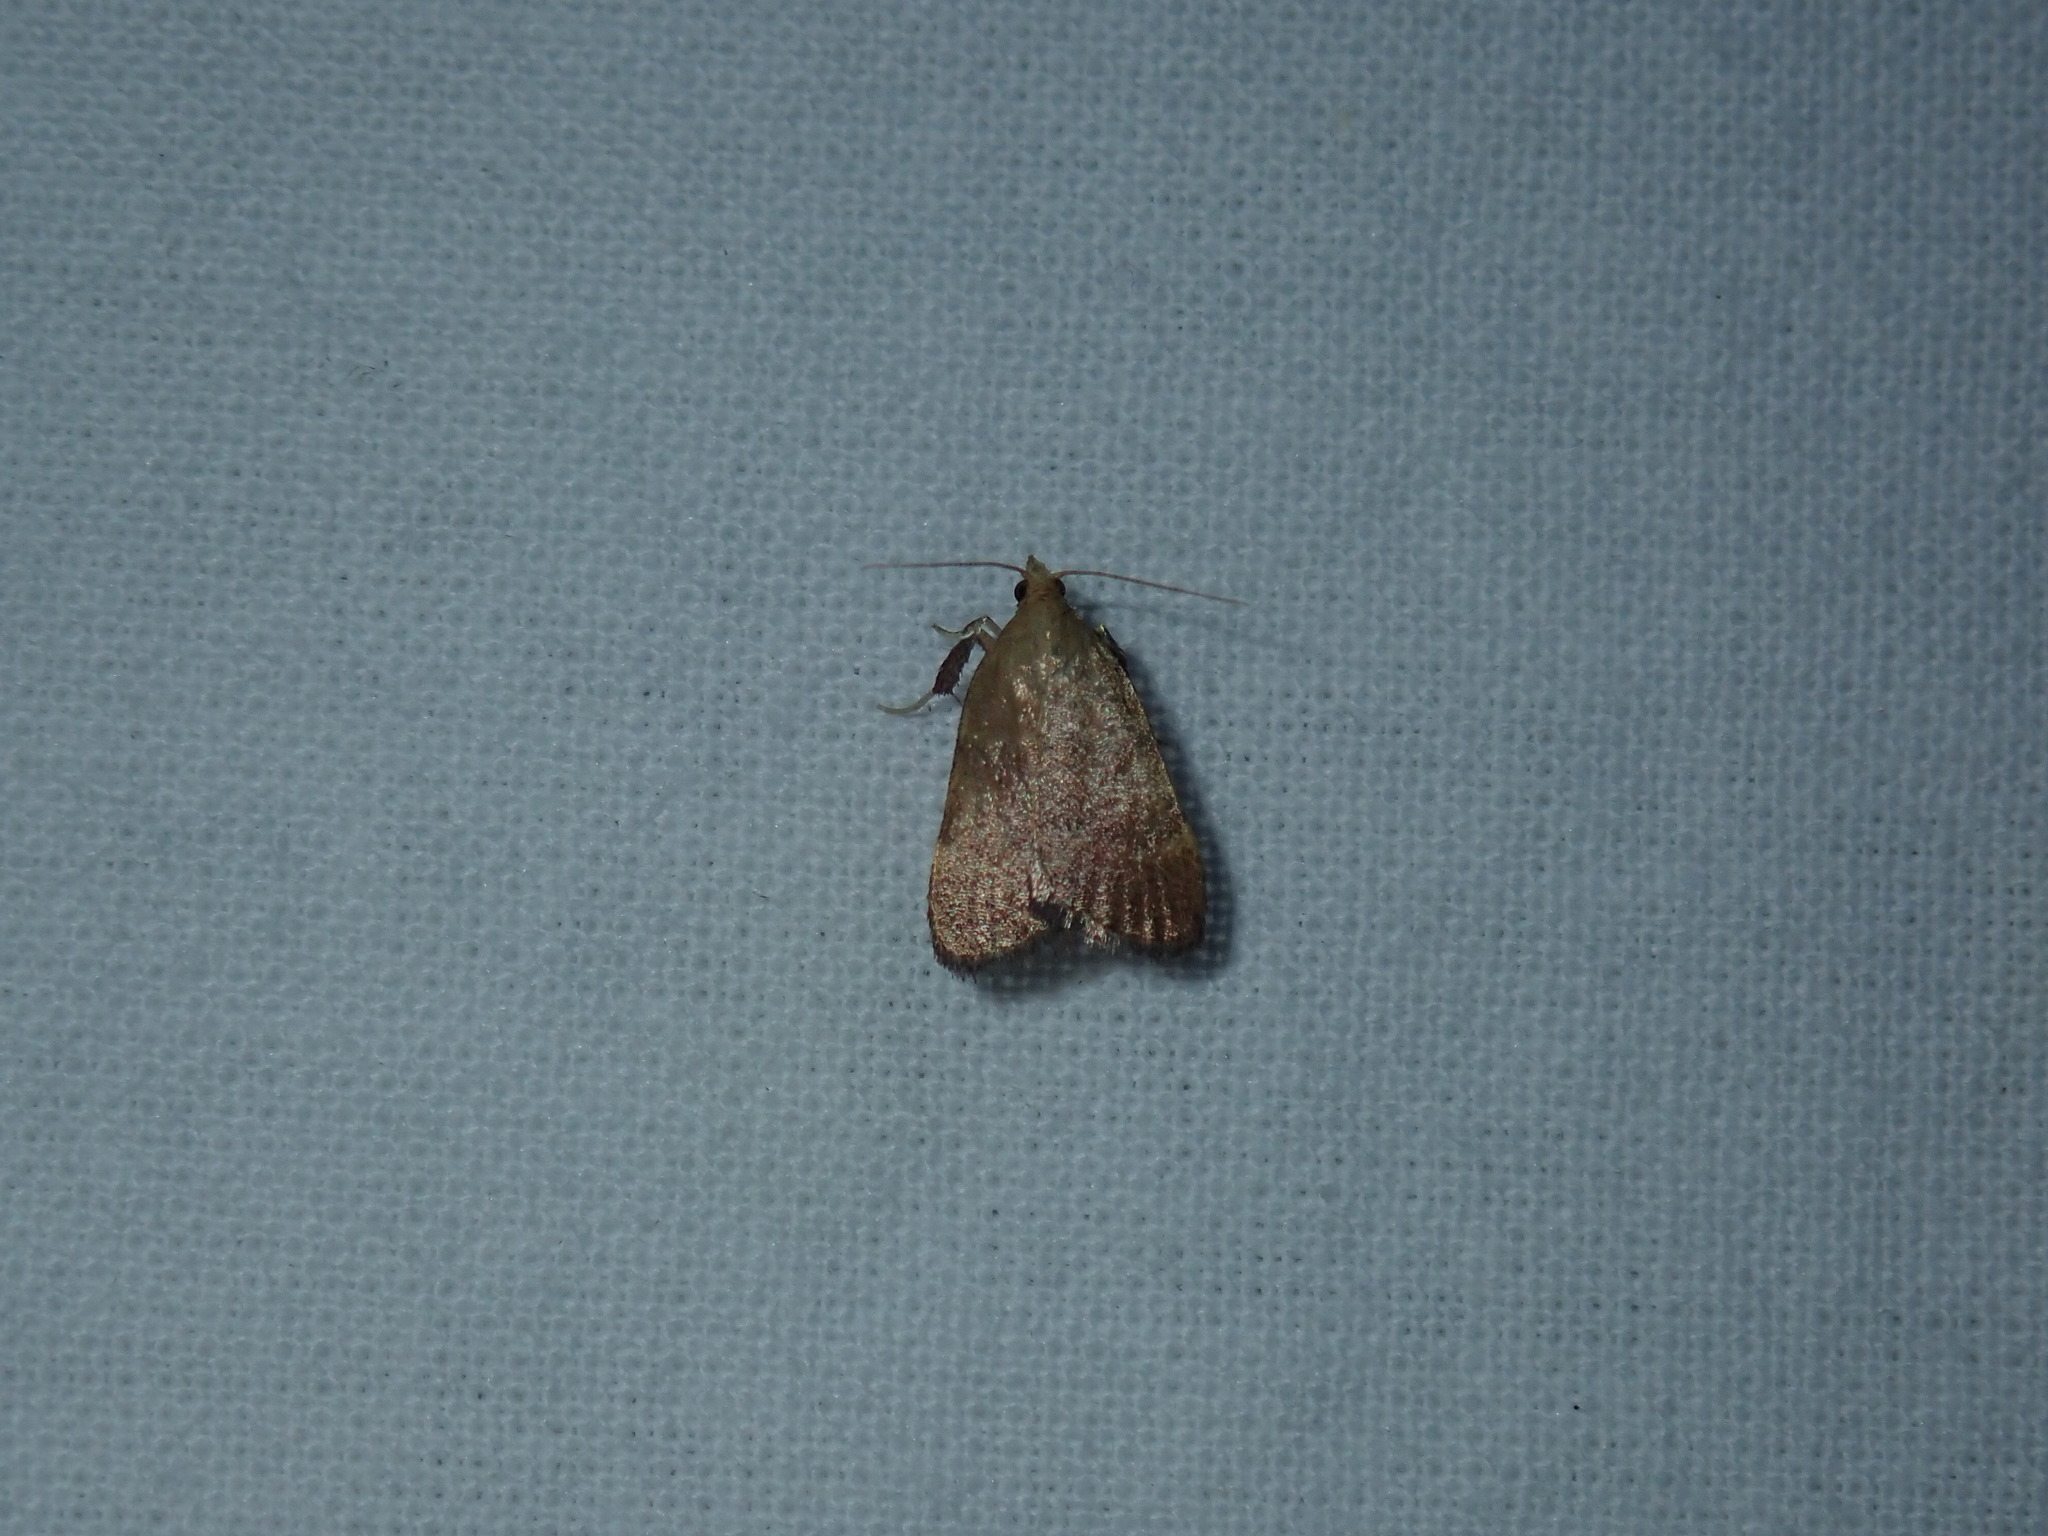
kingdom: Animalia
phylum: Arthropoda
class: Insecta
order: Lepidoptera
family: Pyralidae
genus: Condylolomia
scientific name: Condylolomia participialis
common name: Drab condylolomia moth
